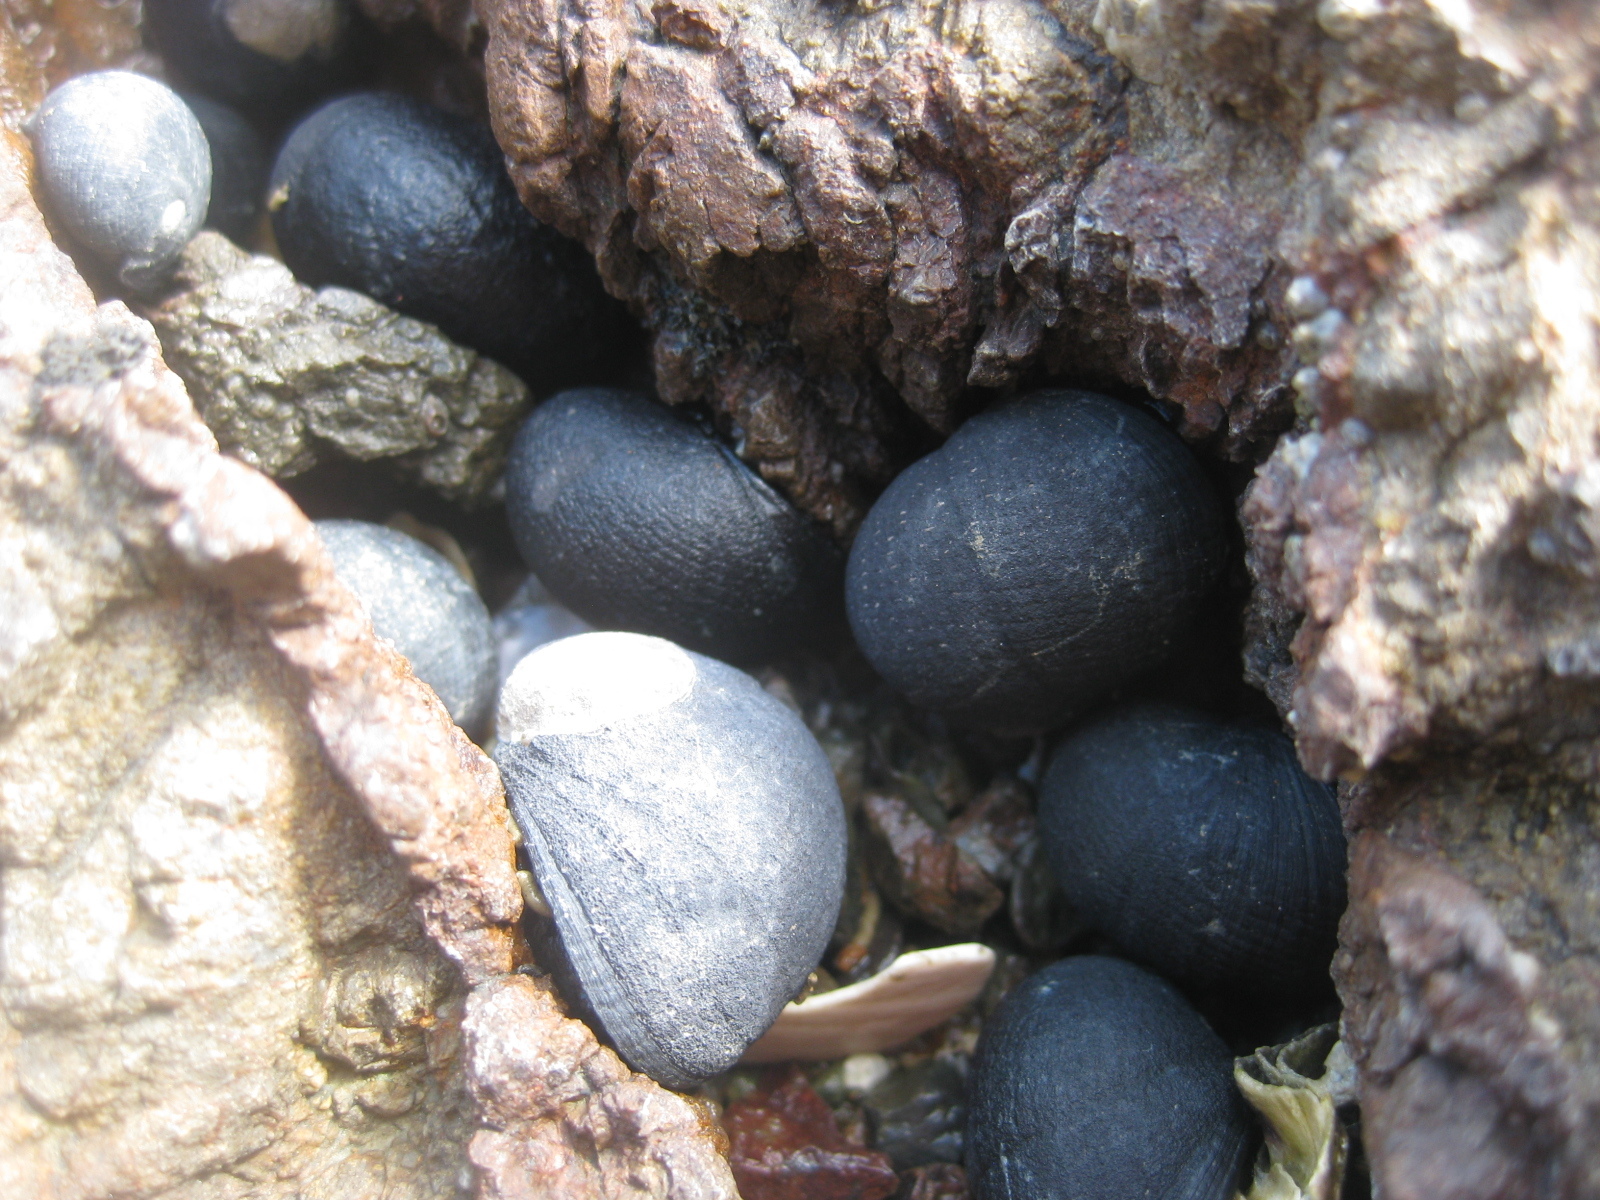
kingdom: Animalia
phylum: Mollusca
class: Gastropoda
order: Cycloneritida
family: Neritidae
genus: Nerita
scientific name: Nerita melanotragus
